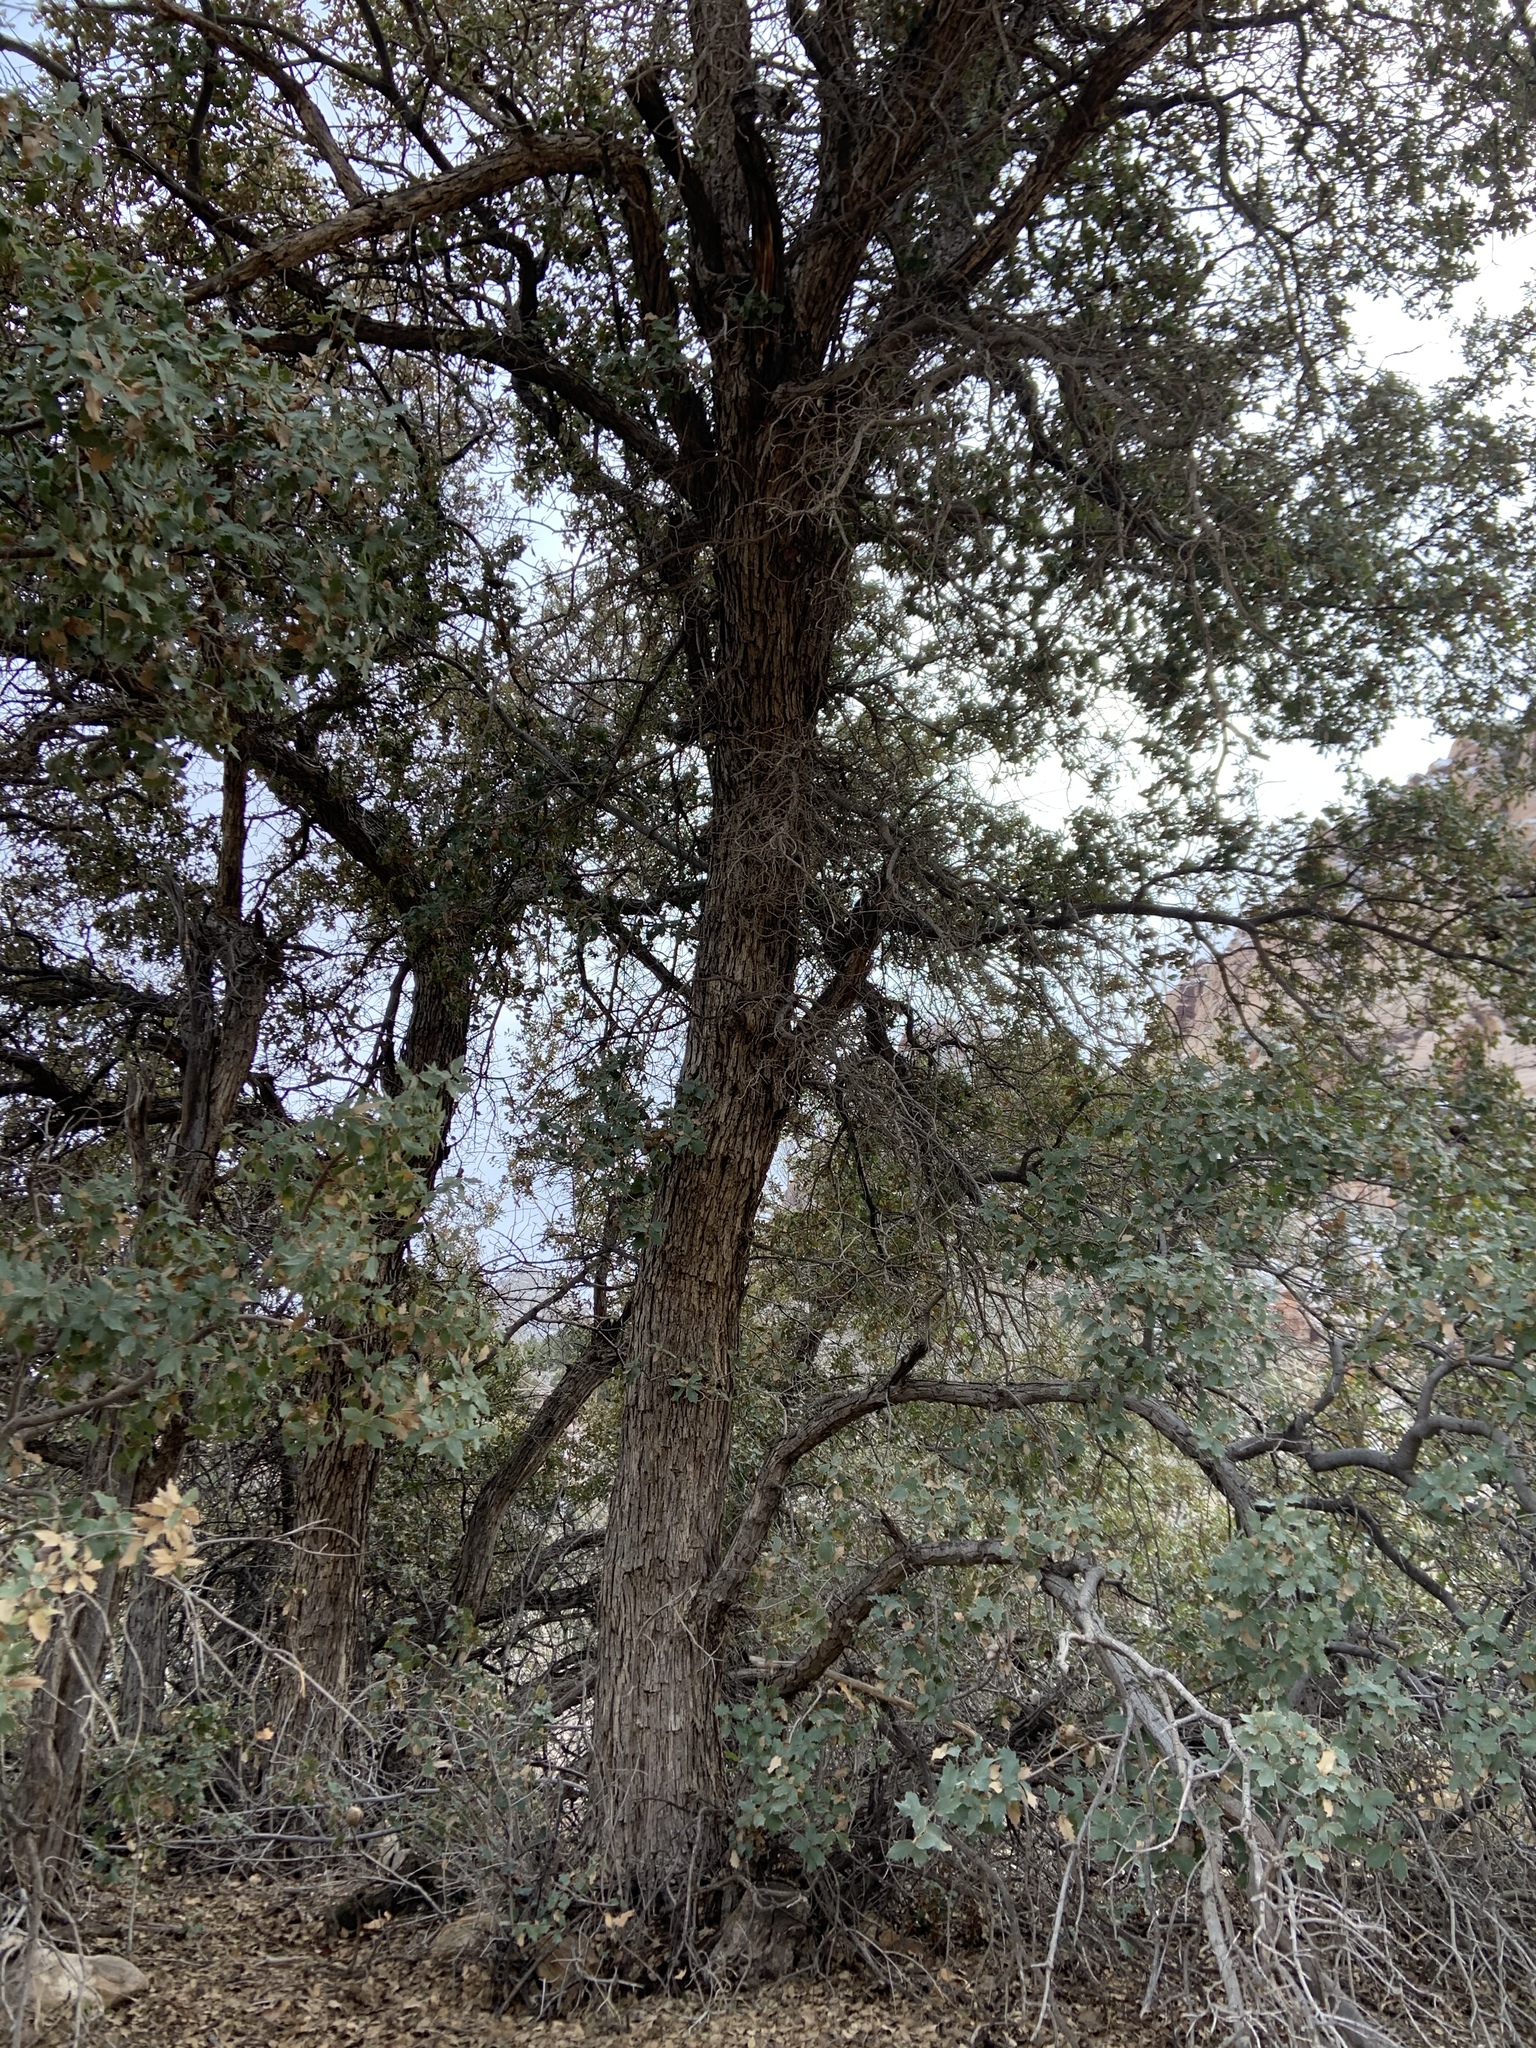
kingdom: Plantae
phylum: Tracheophyta
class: Magnoliopsida
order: Fagales
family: Fagaceae
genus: Quercus
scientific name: Quercus turbinella
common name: Sonoran scrub oak
